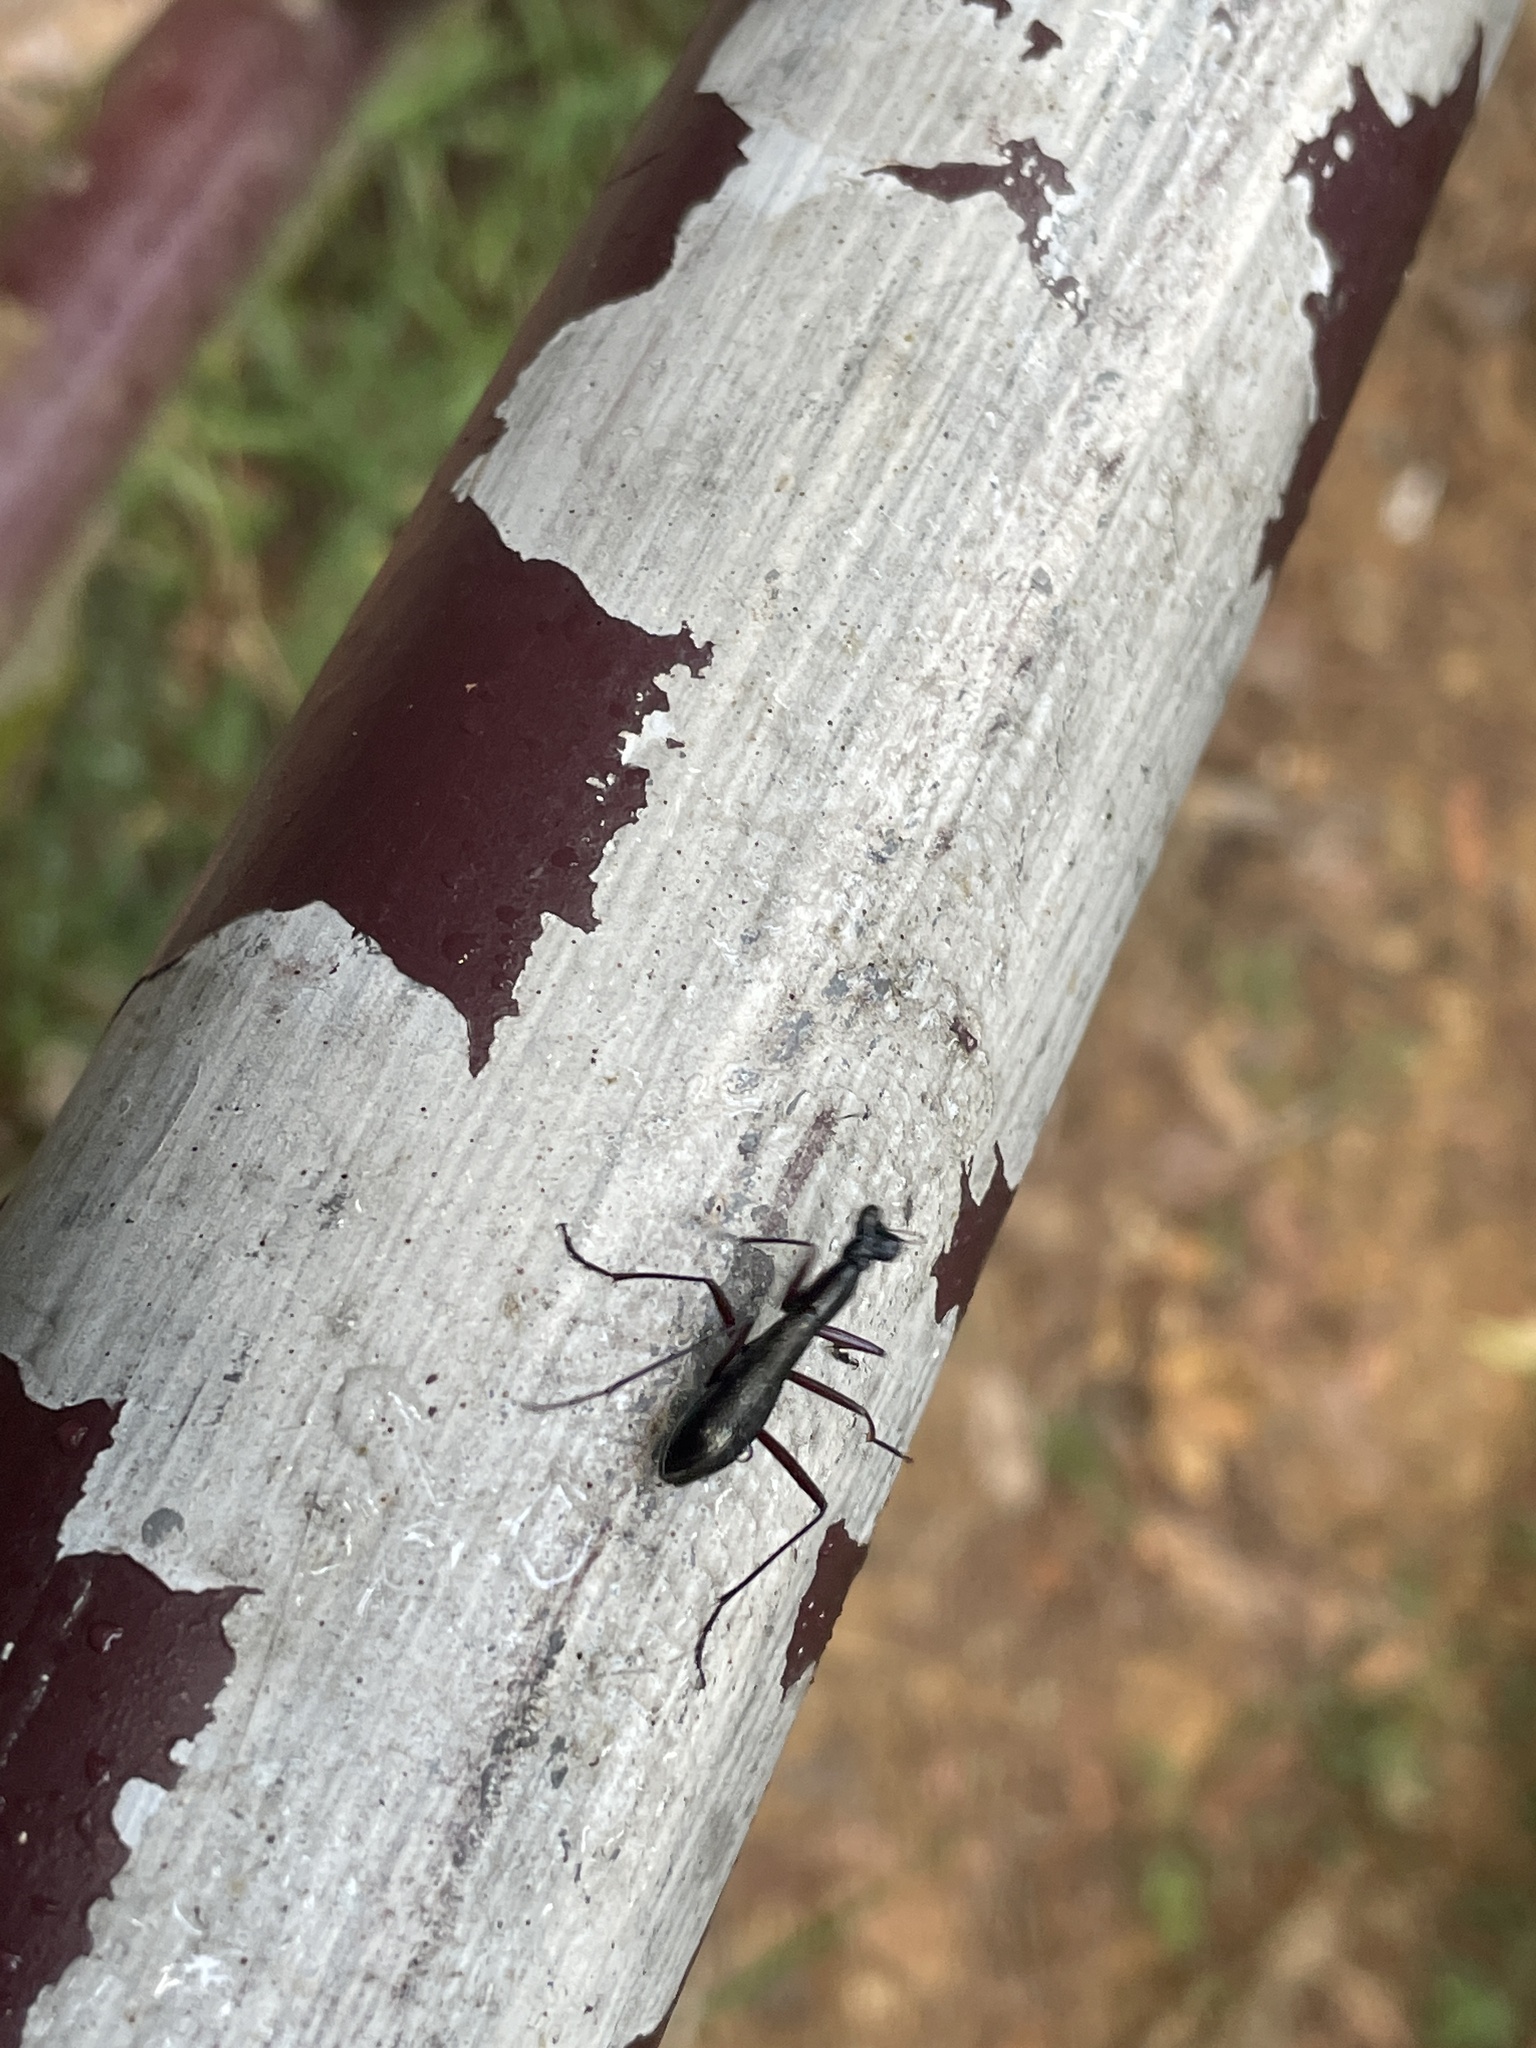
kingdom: Animalia
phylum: Arthropoda
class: Insecta
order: Coleoptera
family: Carabidae
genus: Tricondyla
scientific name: Tricondyla pulchripes
